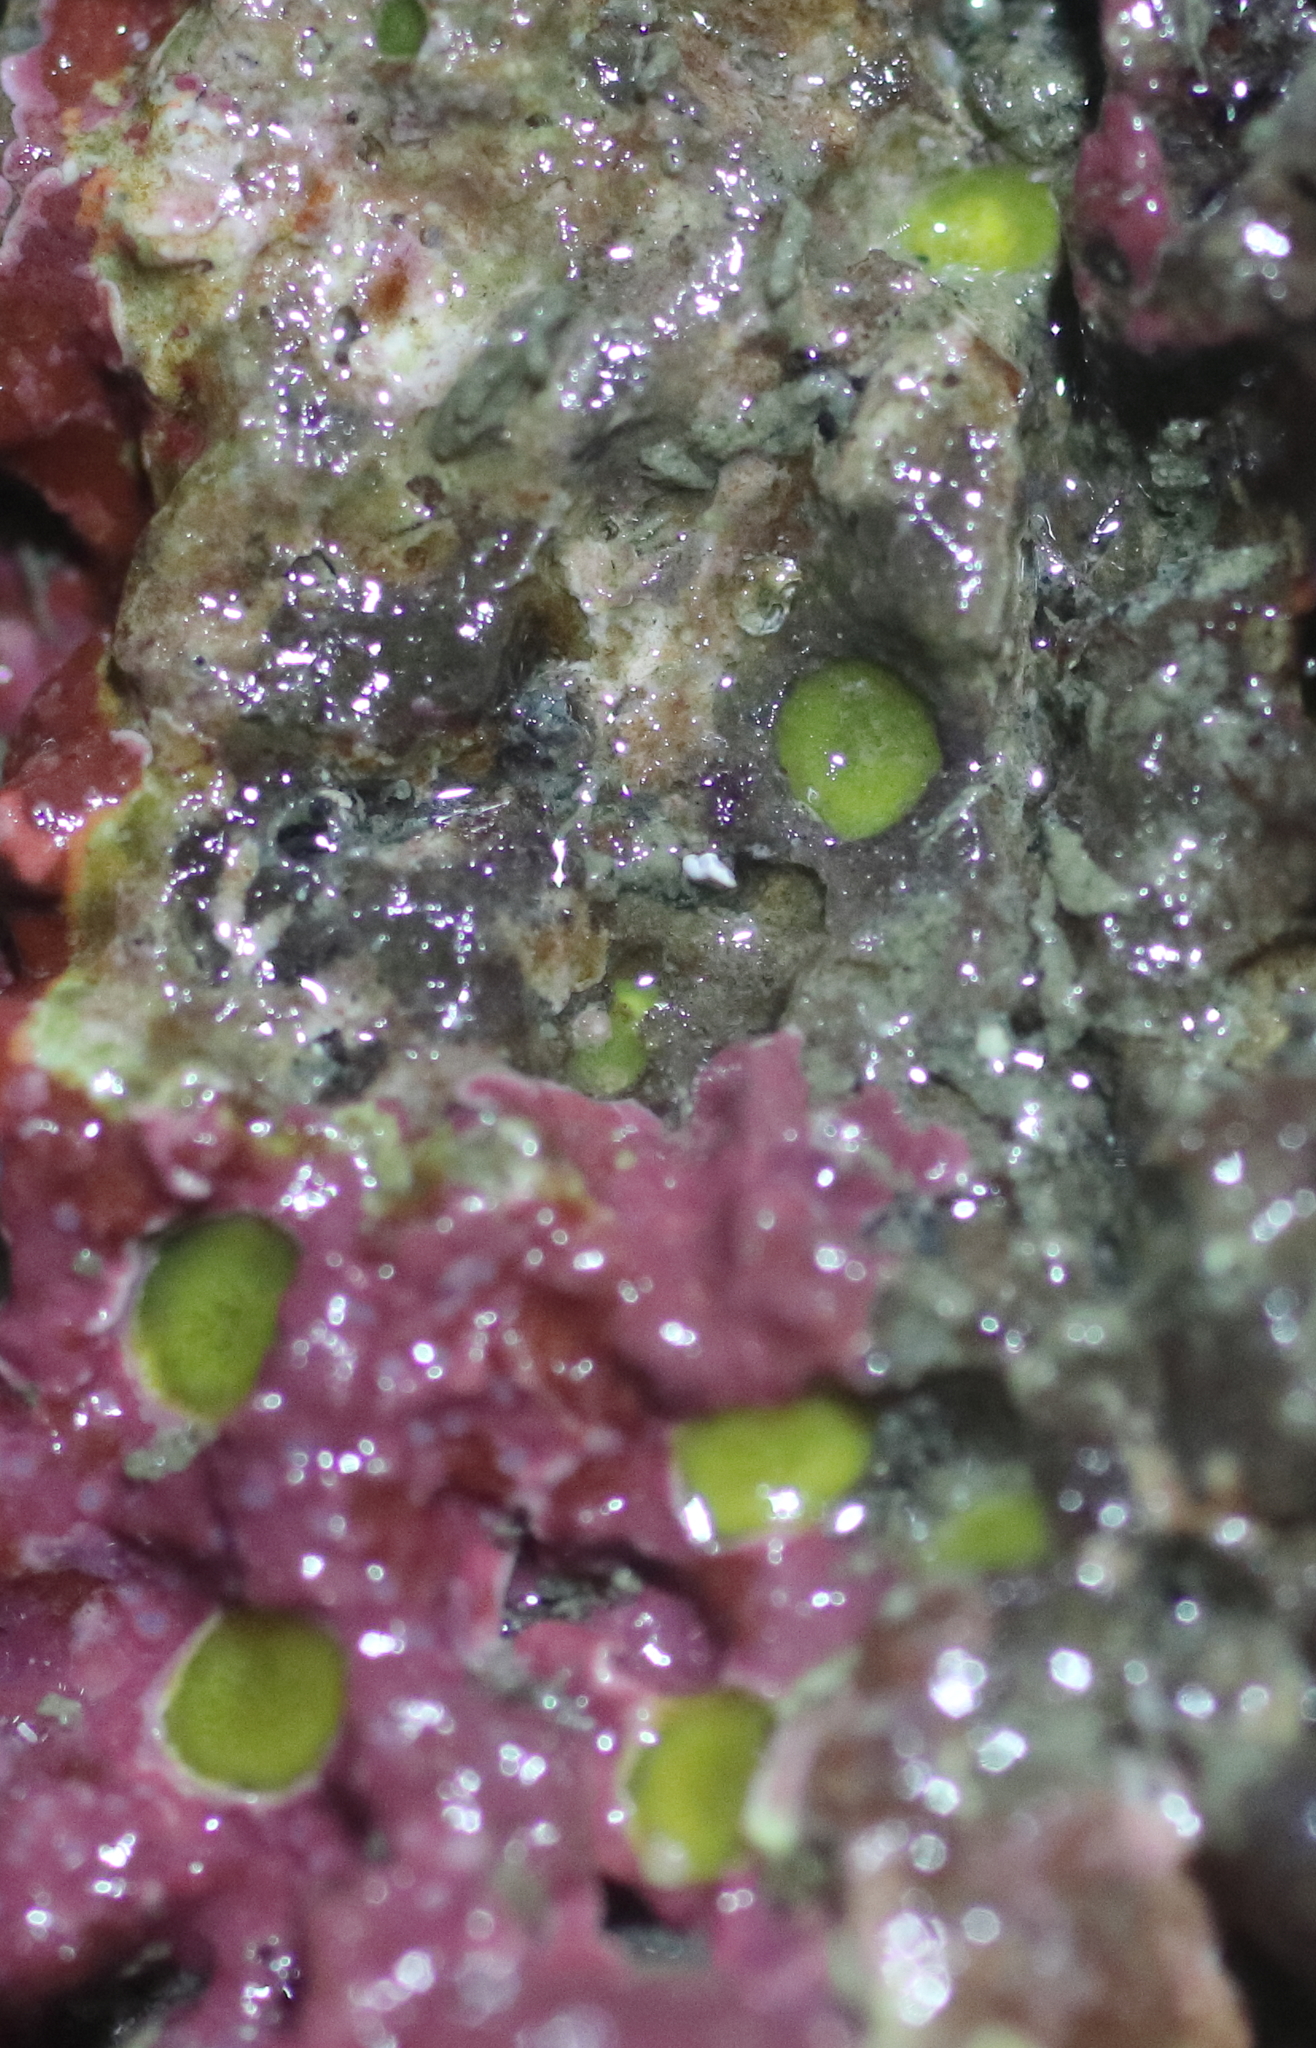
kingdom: Animalia
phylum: Porifera
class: Demospongiae
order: Clionaida
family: Clionaidae
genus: Cliona
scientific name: Cliona californiana
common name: California boring horny sponge
